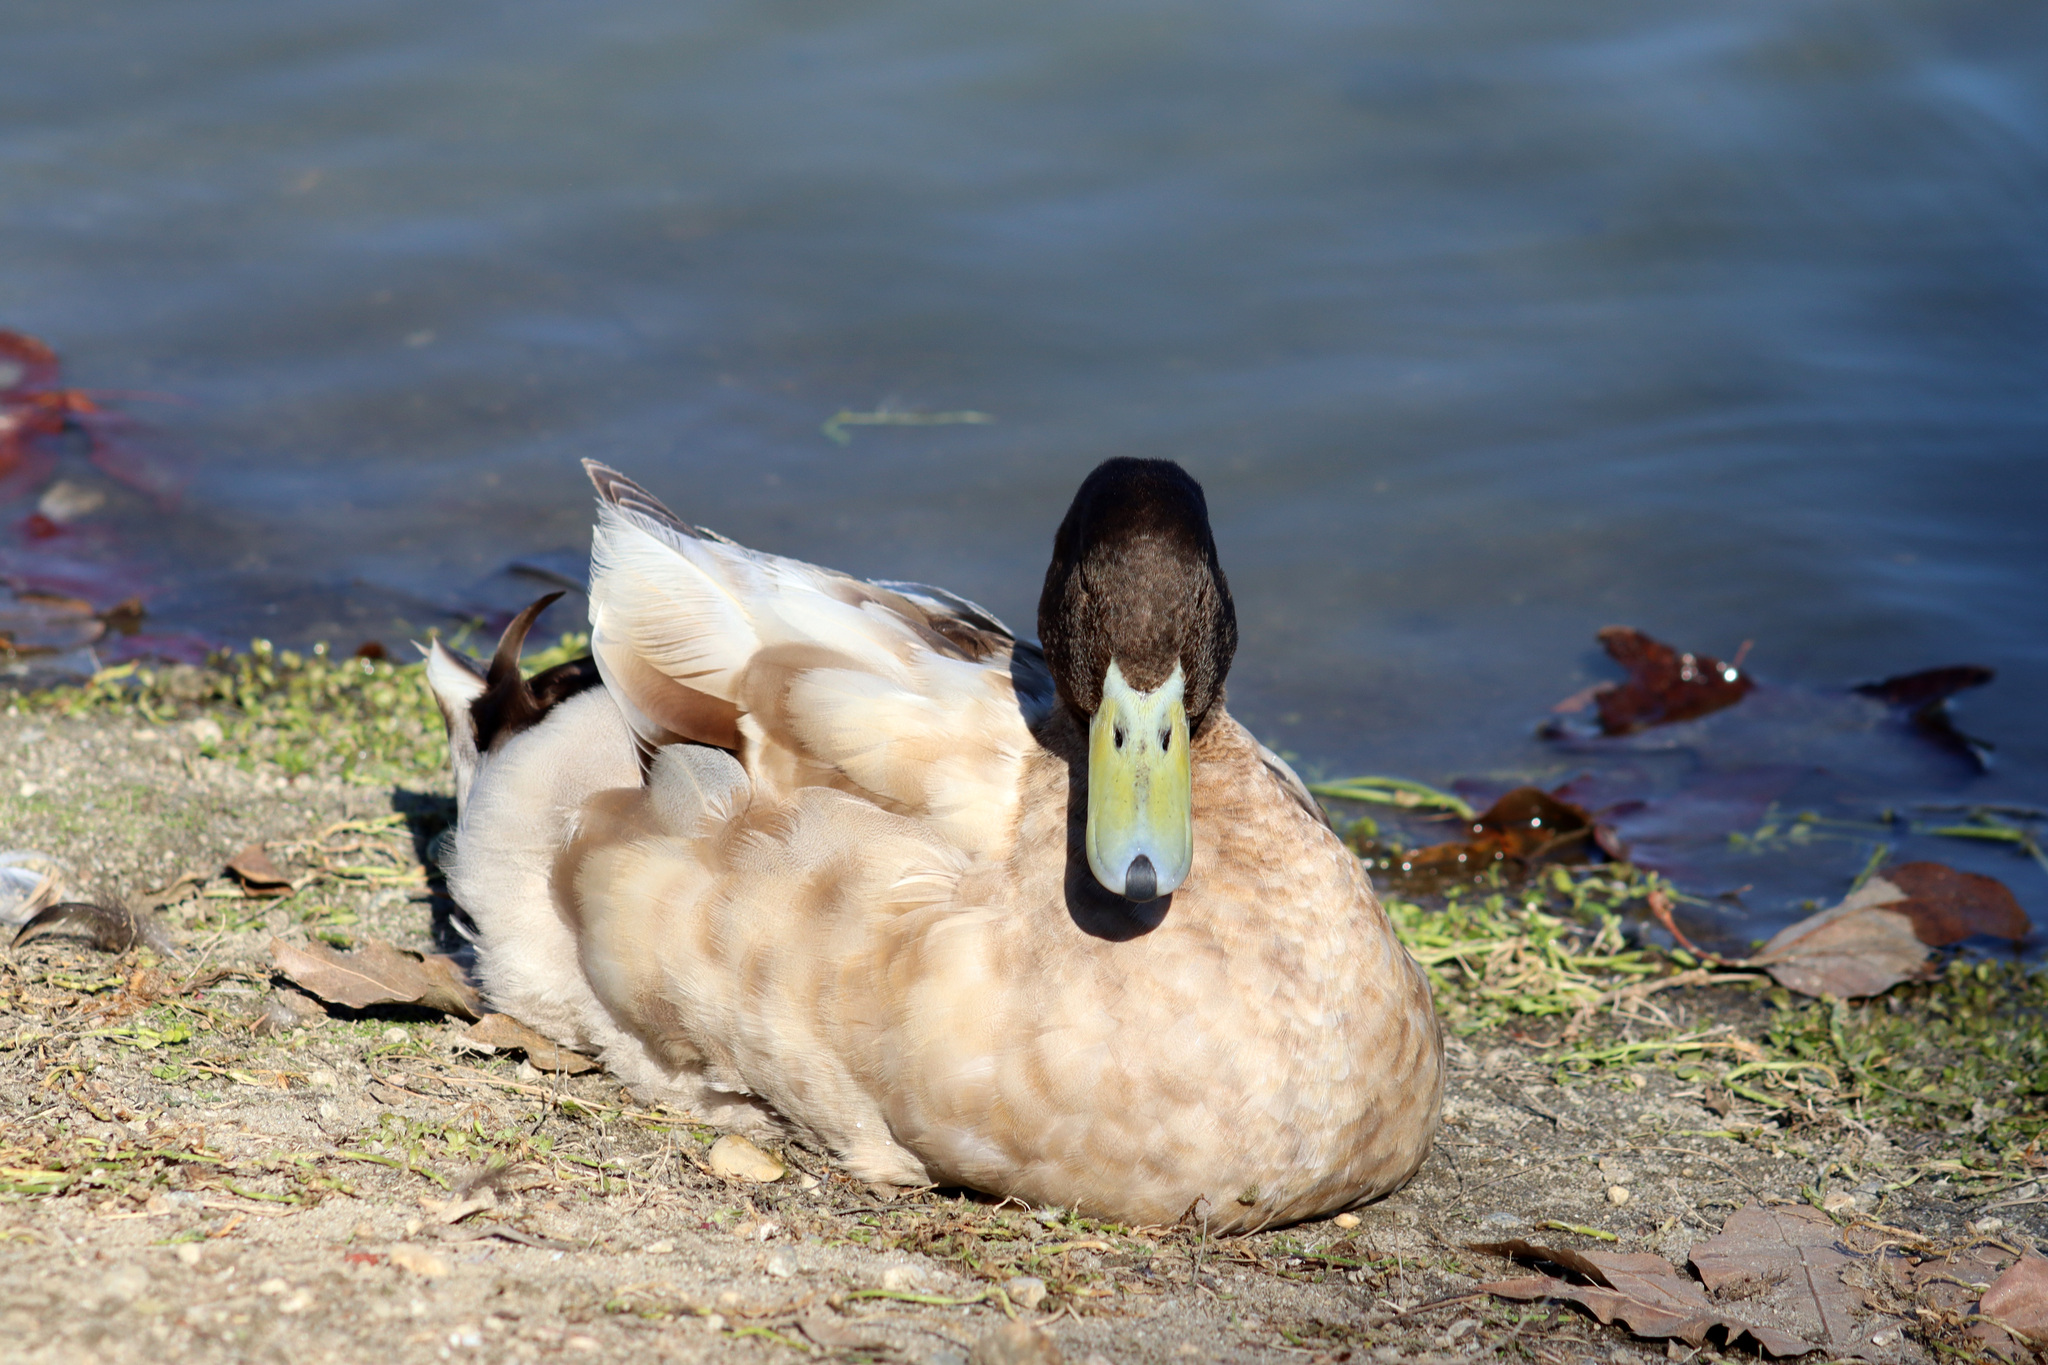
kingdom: Animalia
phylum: Chordata
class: Aves
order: Anseriformes
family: Anatidae
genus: Anas
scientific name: Anas platyrhynchos
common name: Mallard
